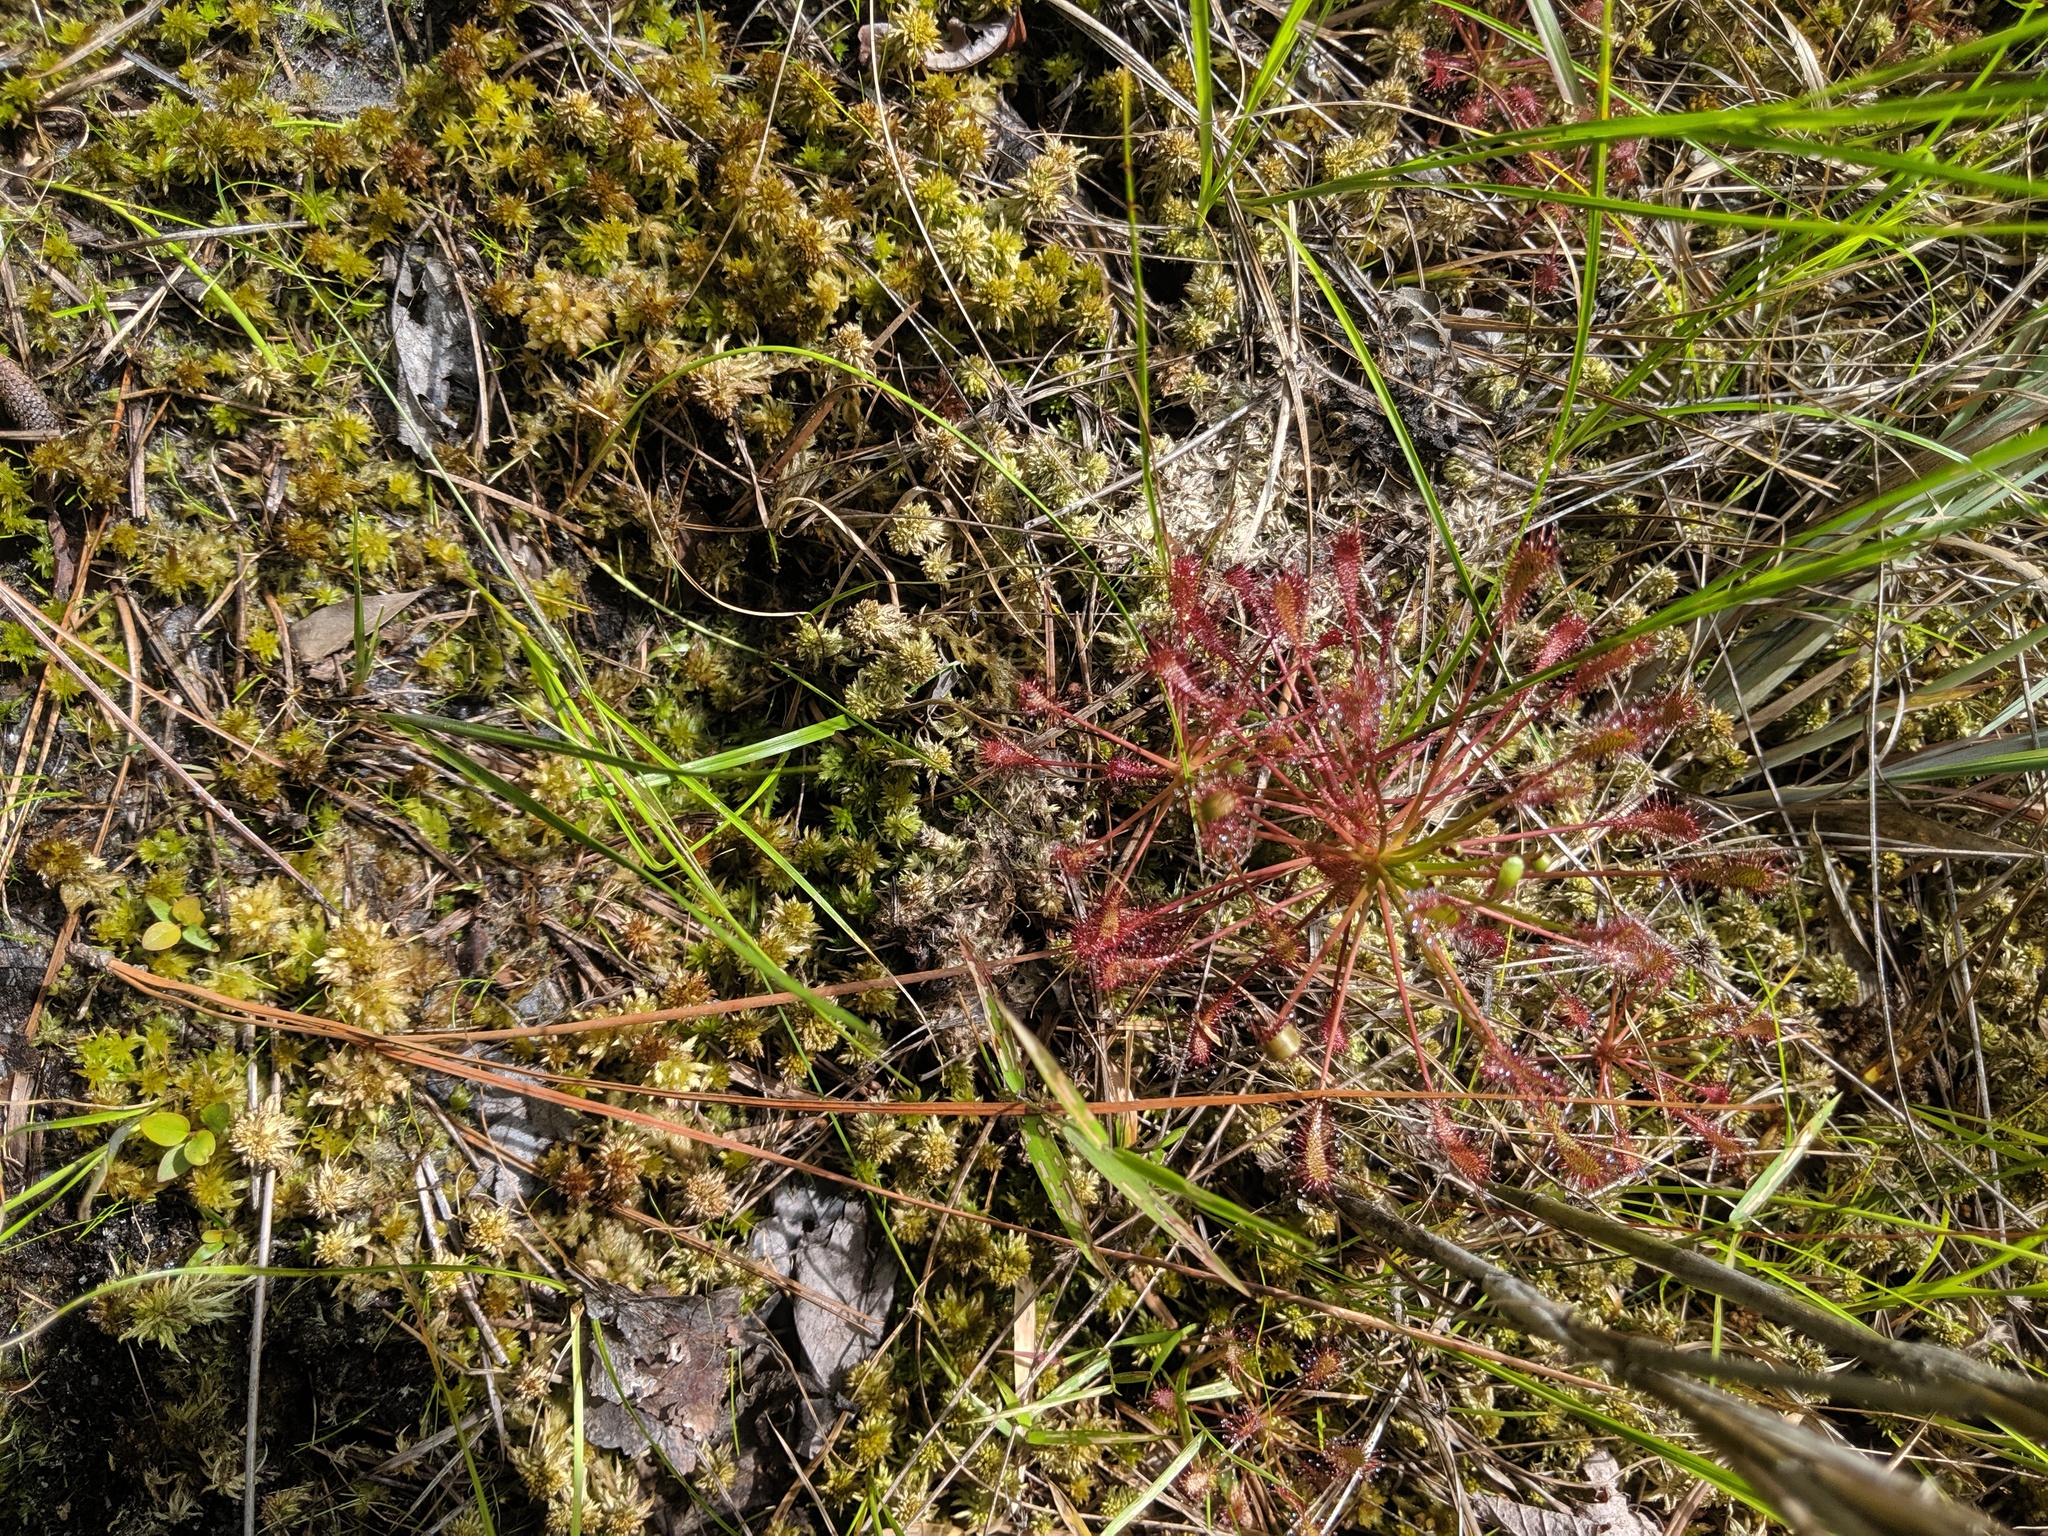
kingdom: Plantae
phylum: Tracheophyta
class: Magnoliopsida
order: Caryophyllales
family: Droseraceae
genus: Drosera
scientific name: Drosera intermedia
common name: Oblong-leaved sundew
